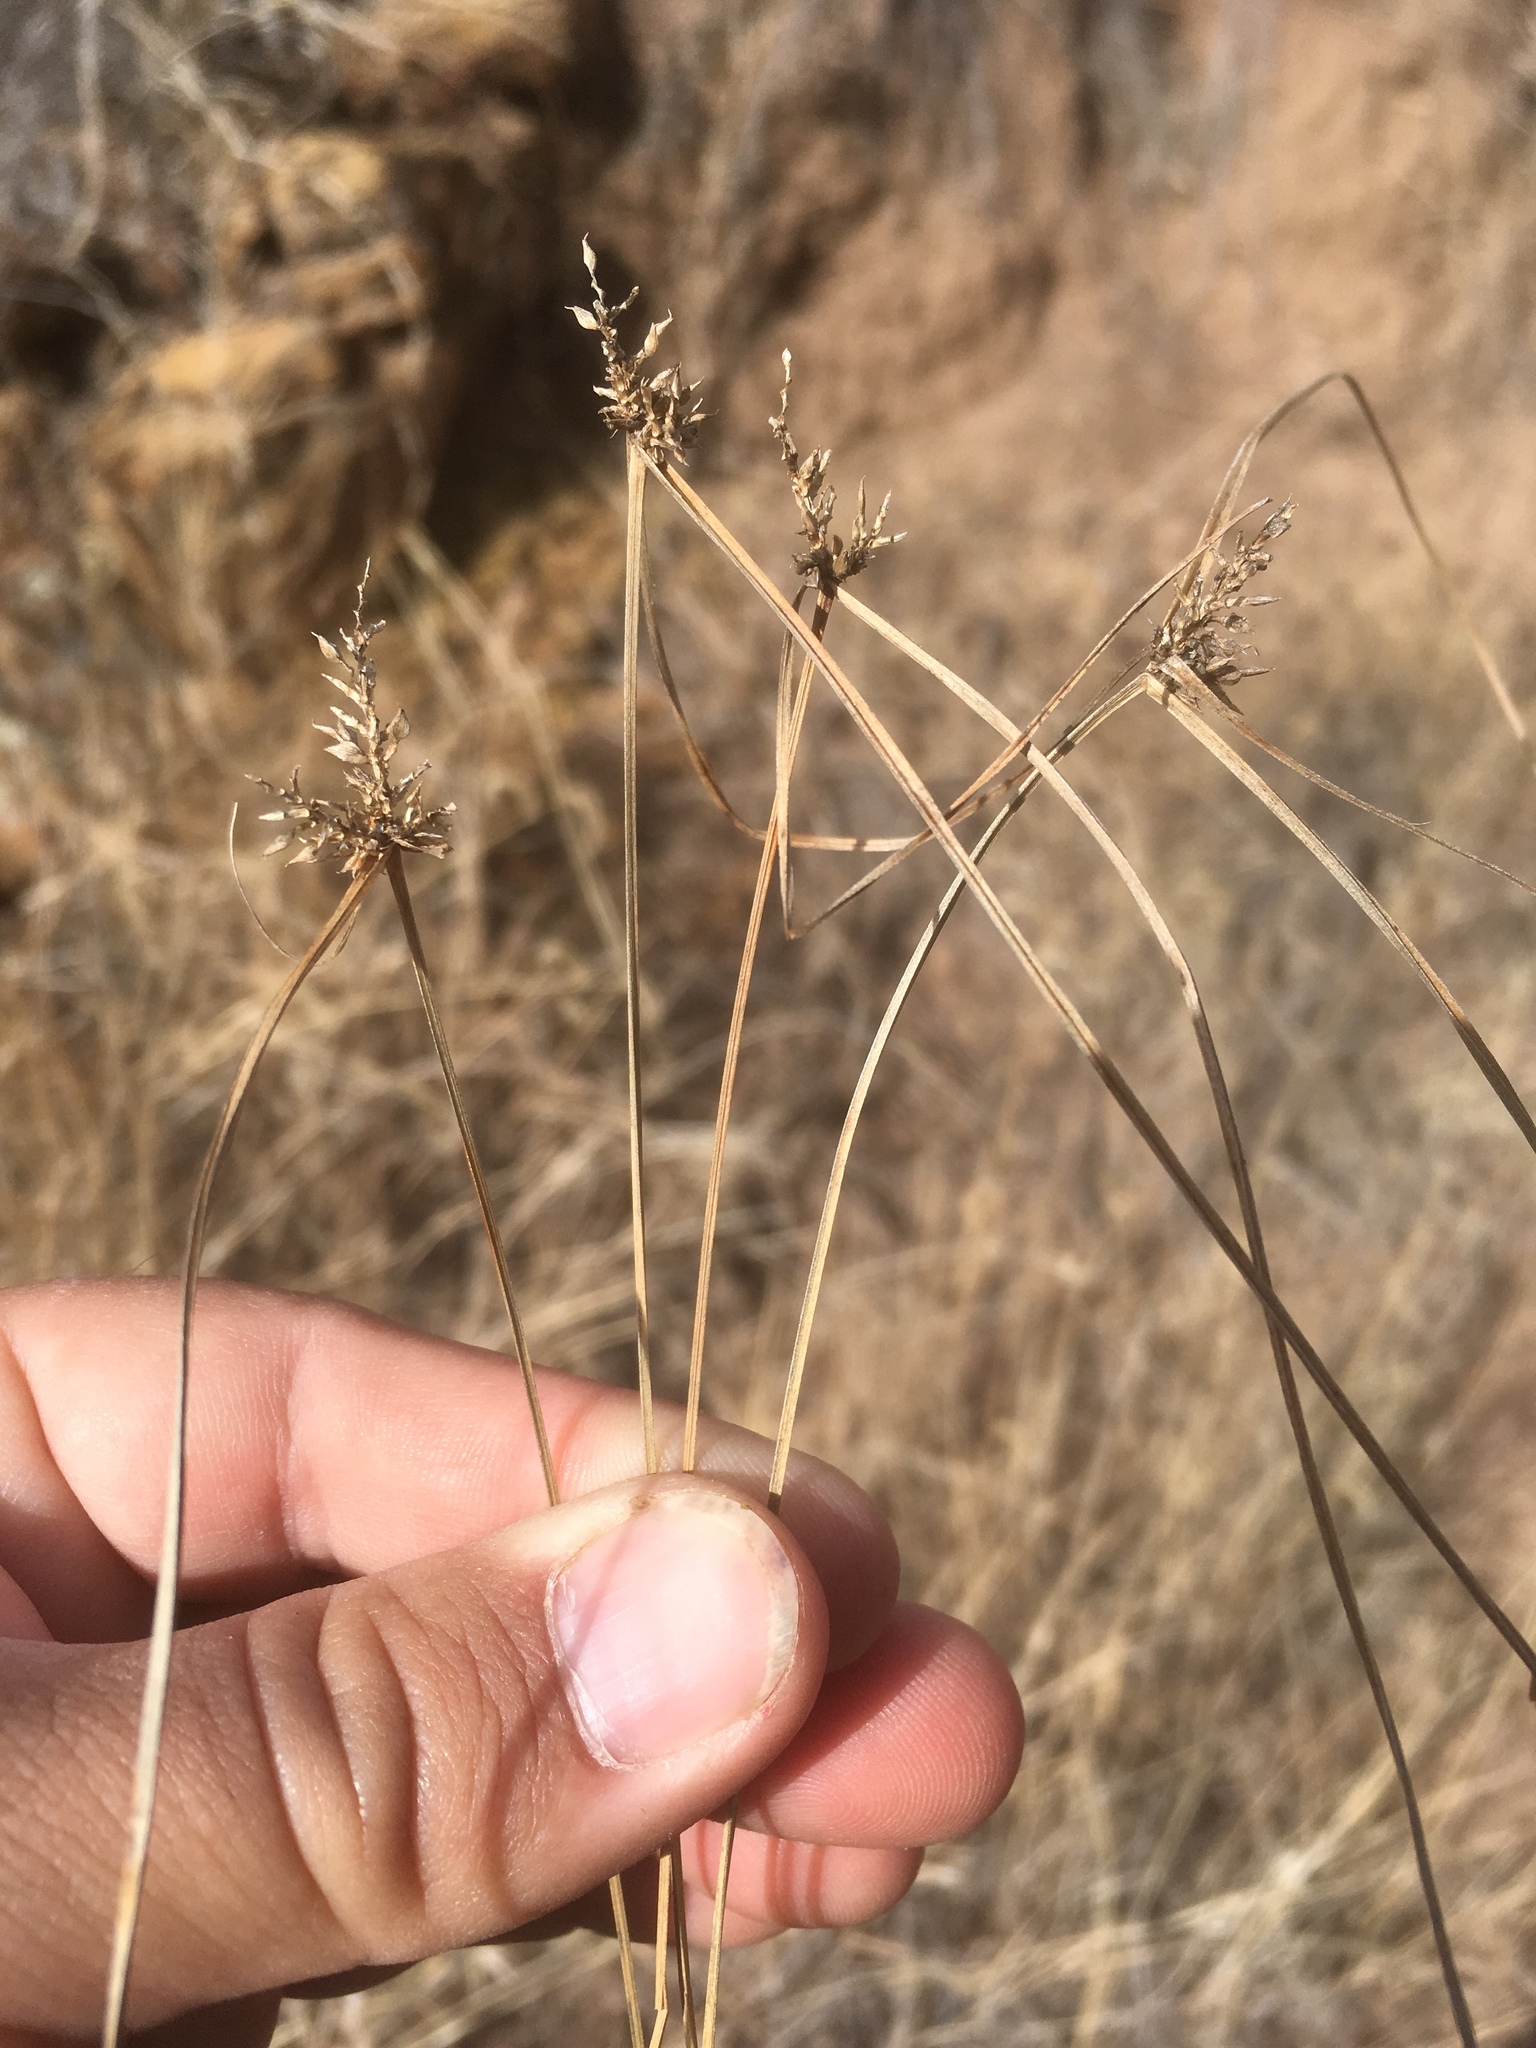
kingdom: Plantae
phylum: Tracheophyta
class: Liliopsida
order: Poales
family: Cyperaceae
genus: Cyperus
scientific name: Cyperus fendlerianus
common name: Fendler flat sedge
